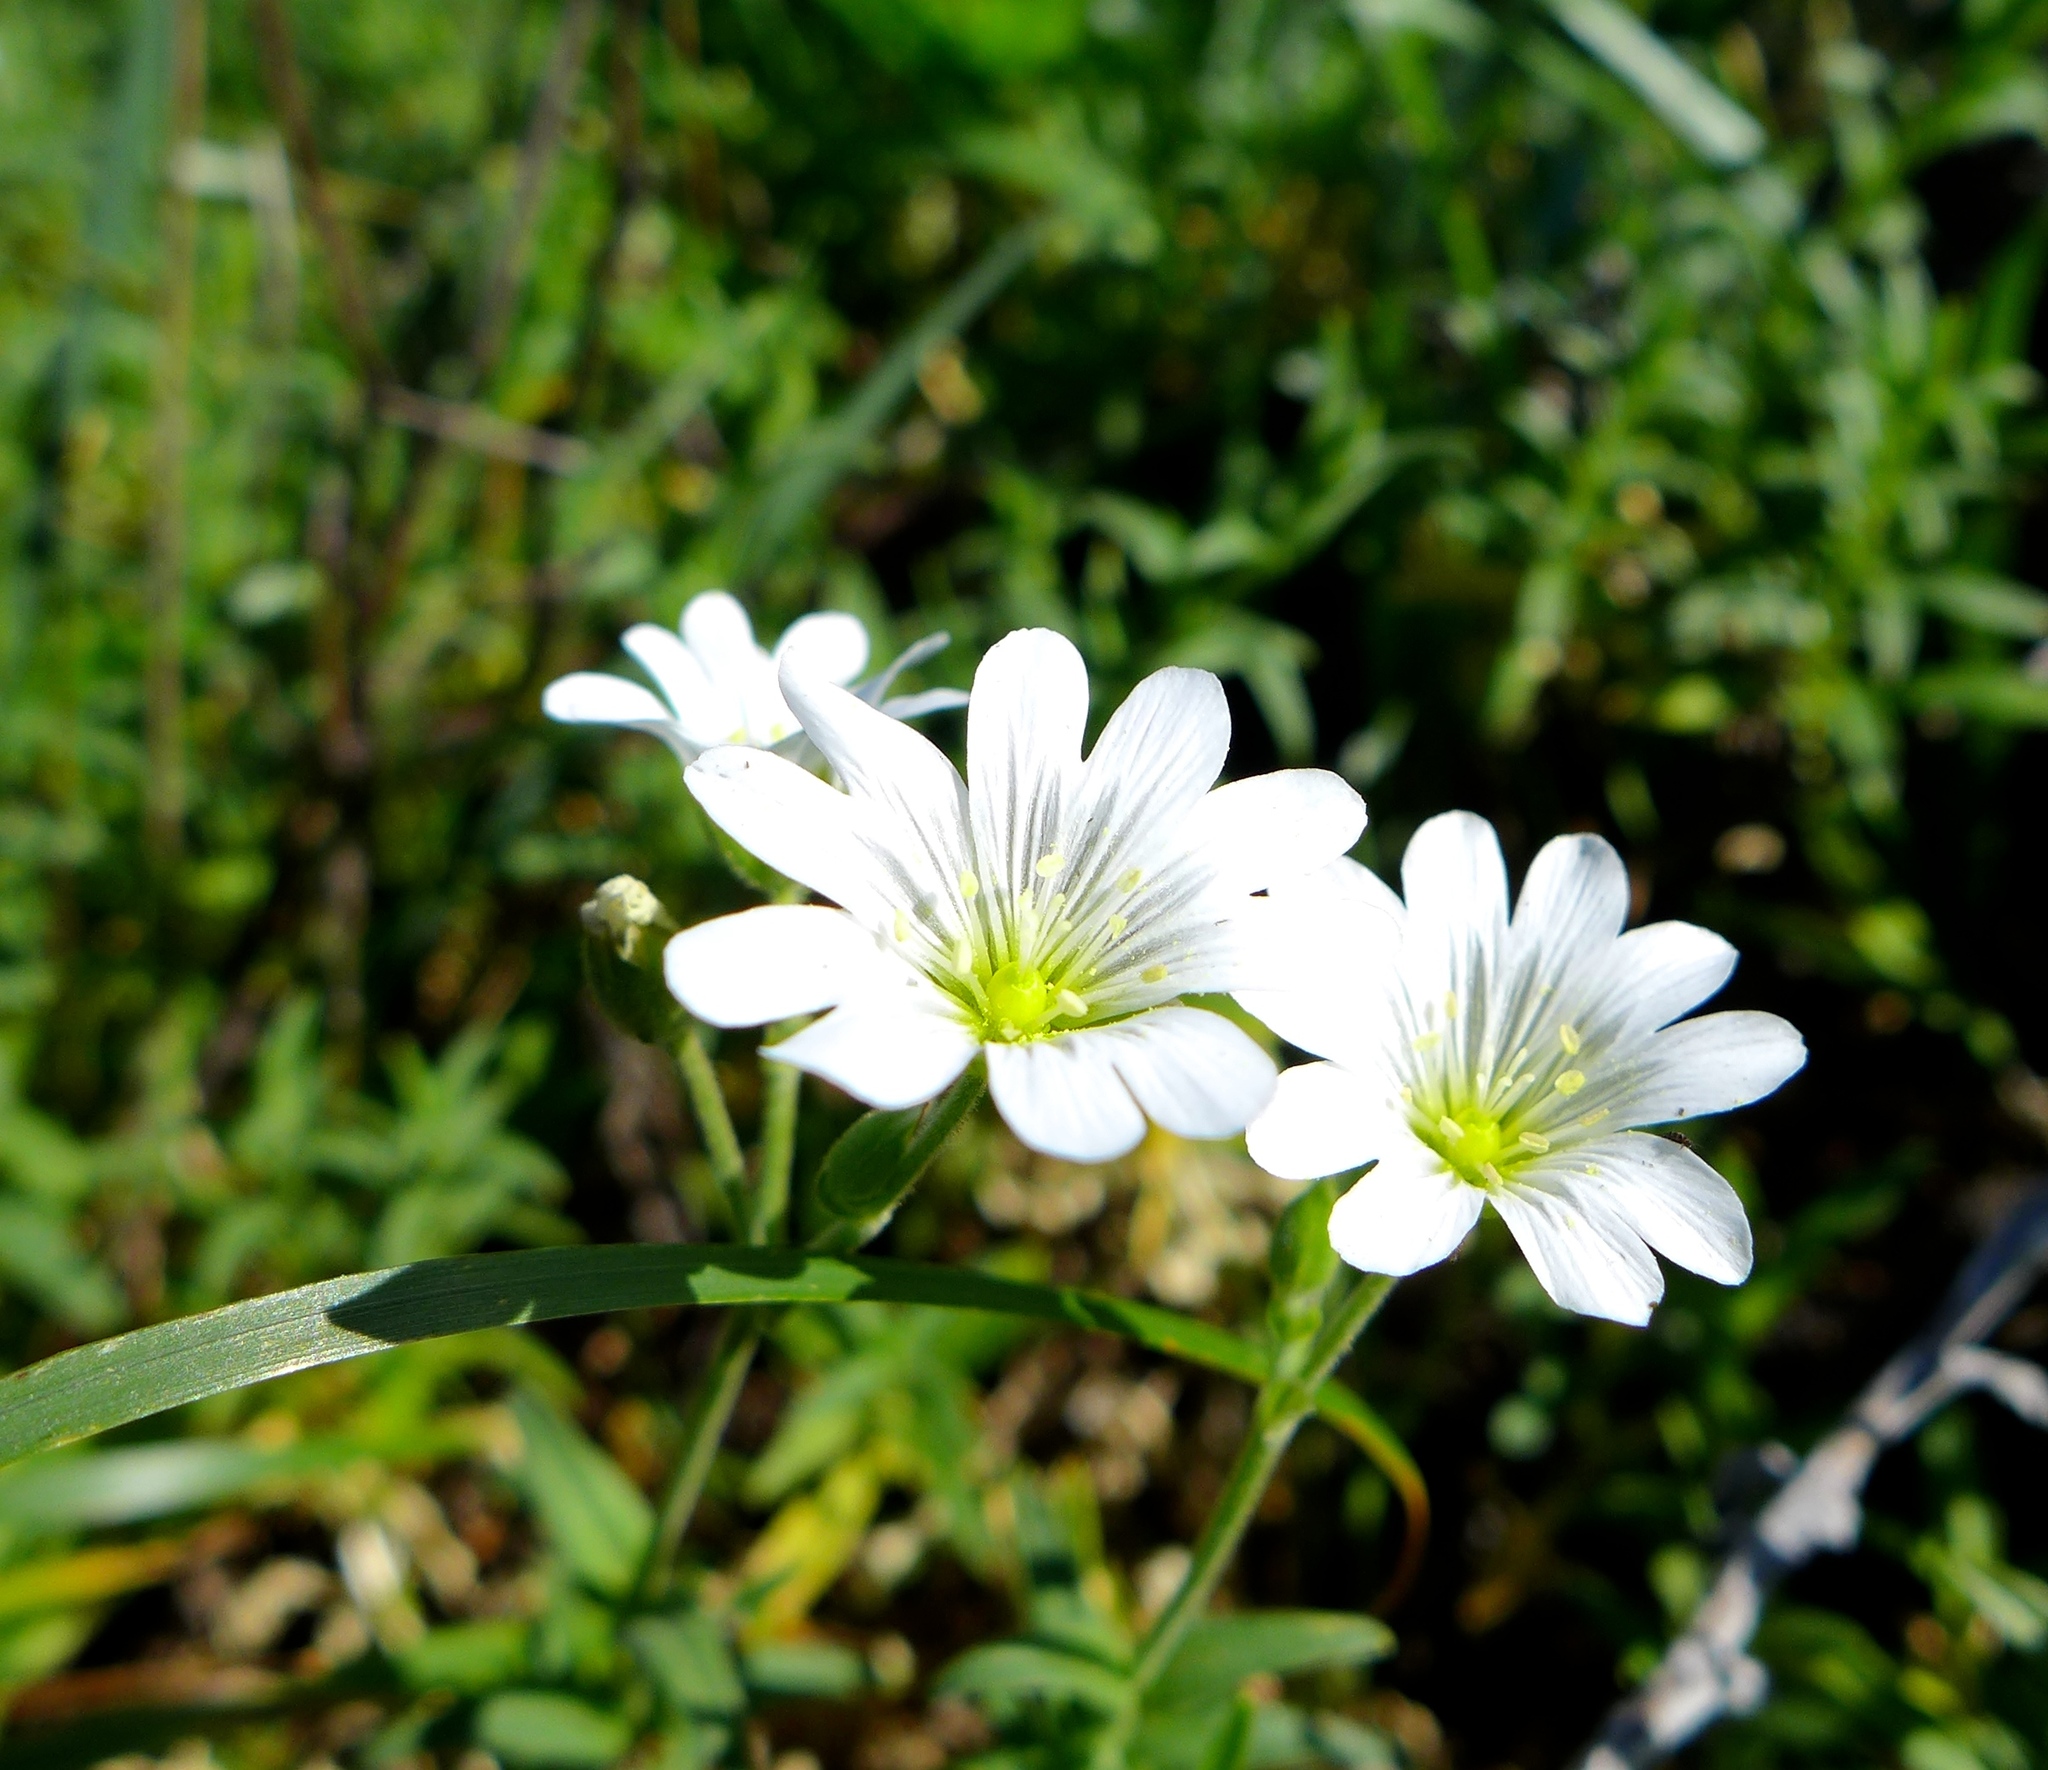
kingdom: Plantae
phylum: Tracheophyta
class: Magnoliopsida
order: Caryophyllales
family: Caryophyllaceae
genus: Cerastium
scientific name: Cerastium arvense
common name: Field mouse-ear
